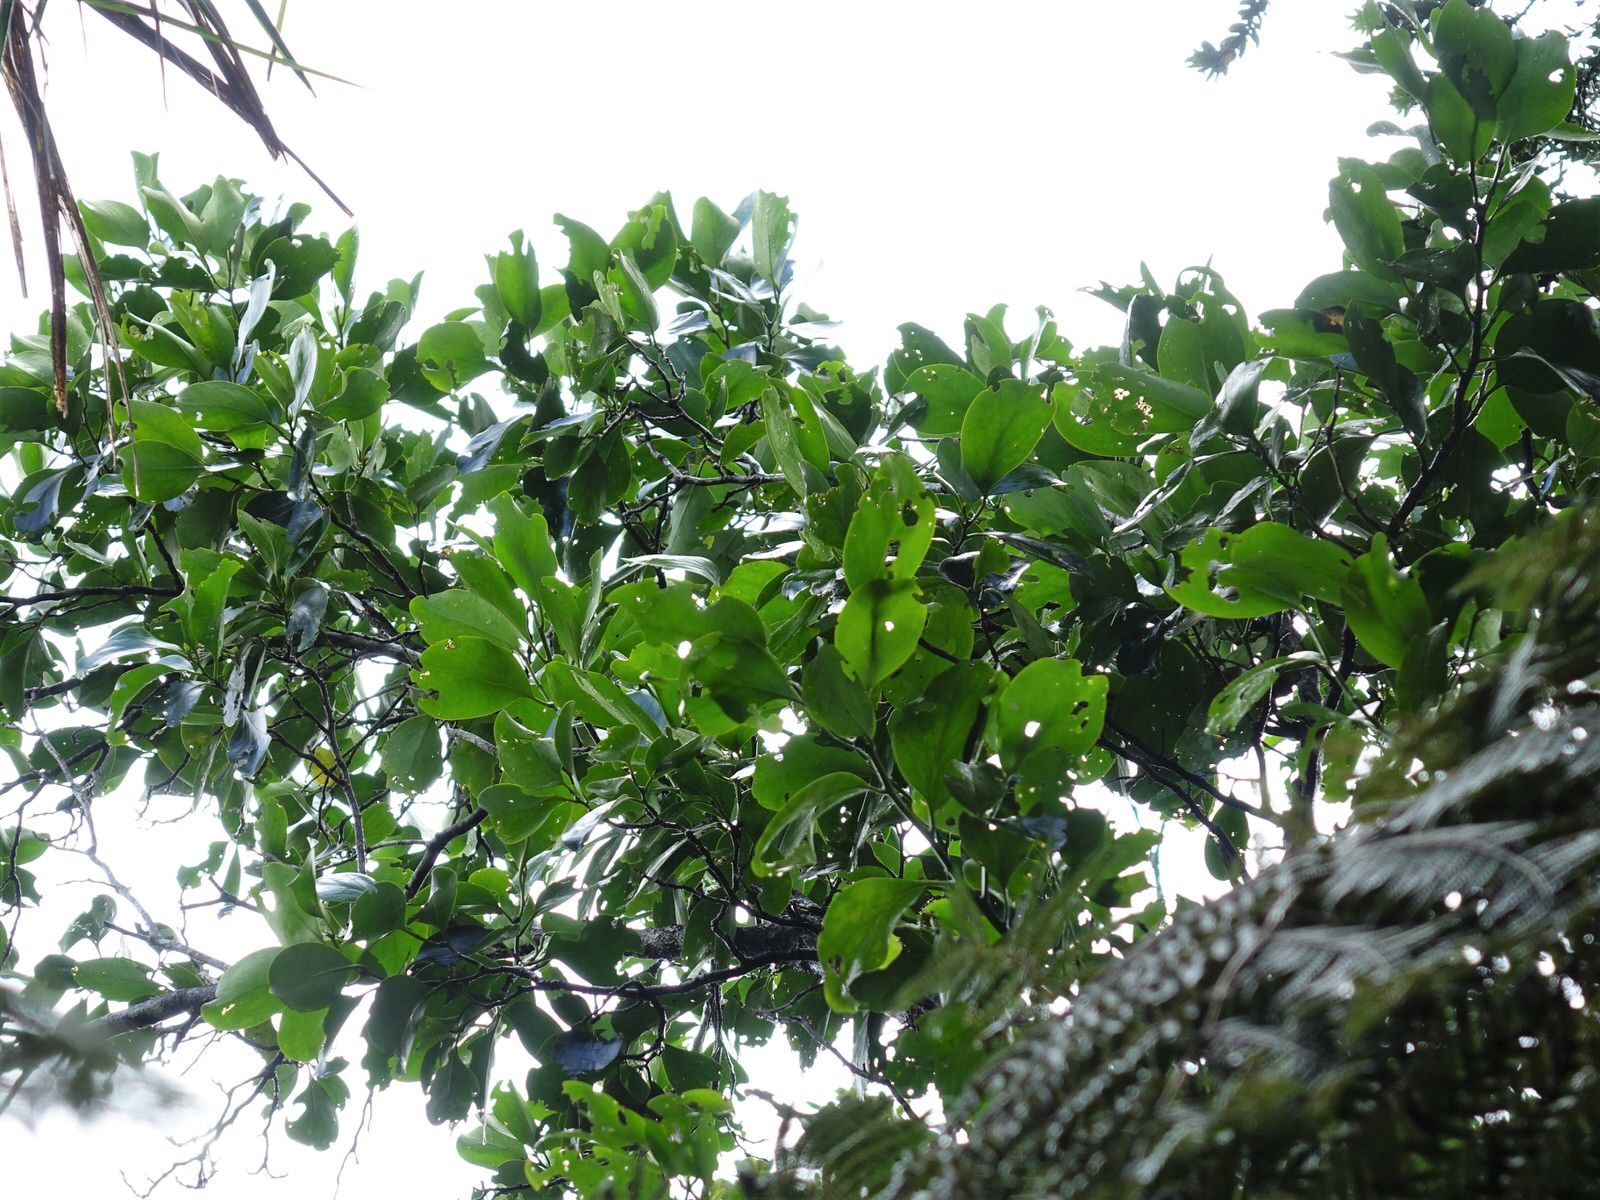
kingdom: Plantae
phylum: Tracheophyta
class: Magnoliopsida
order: Apiales
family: Griseliniaceae
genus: Griselinia
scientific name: Griselinia lucida
